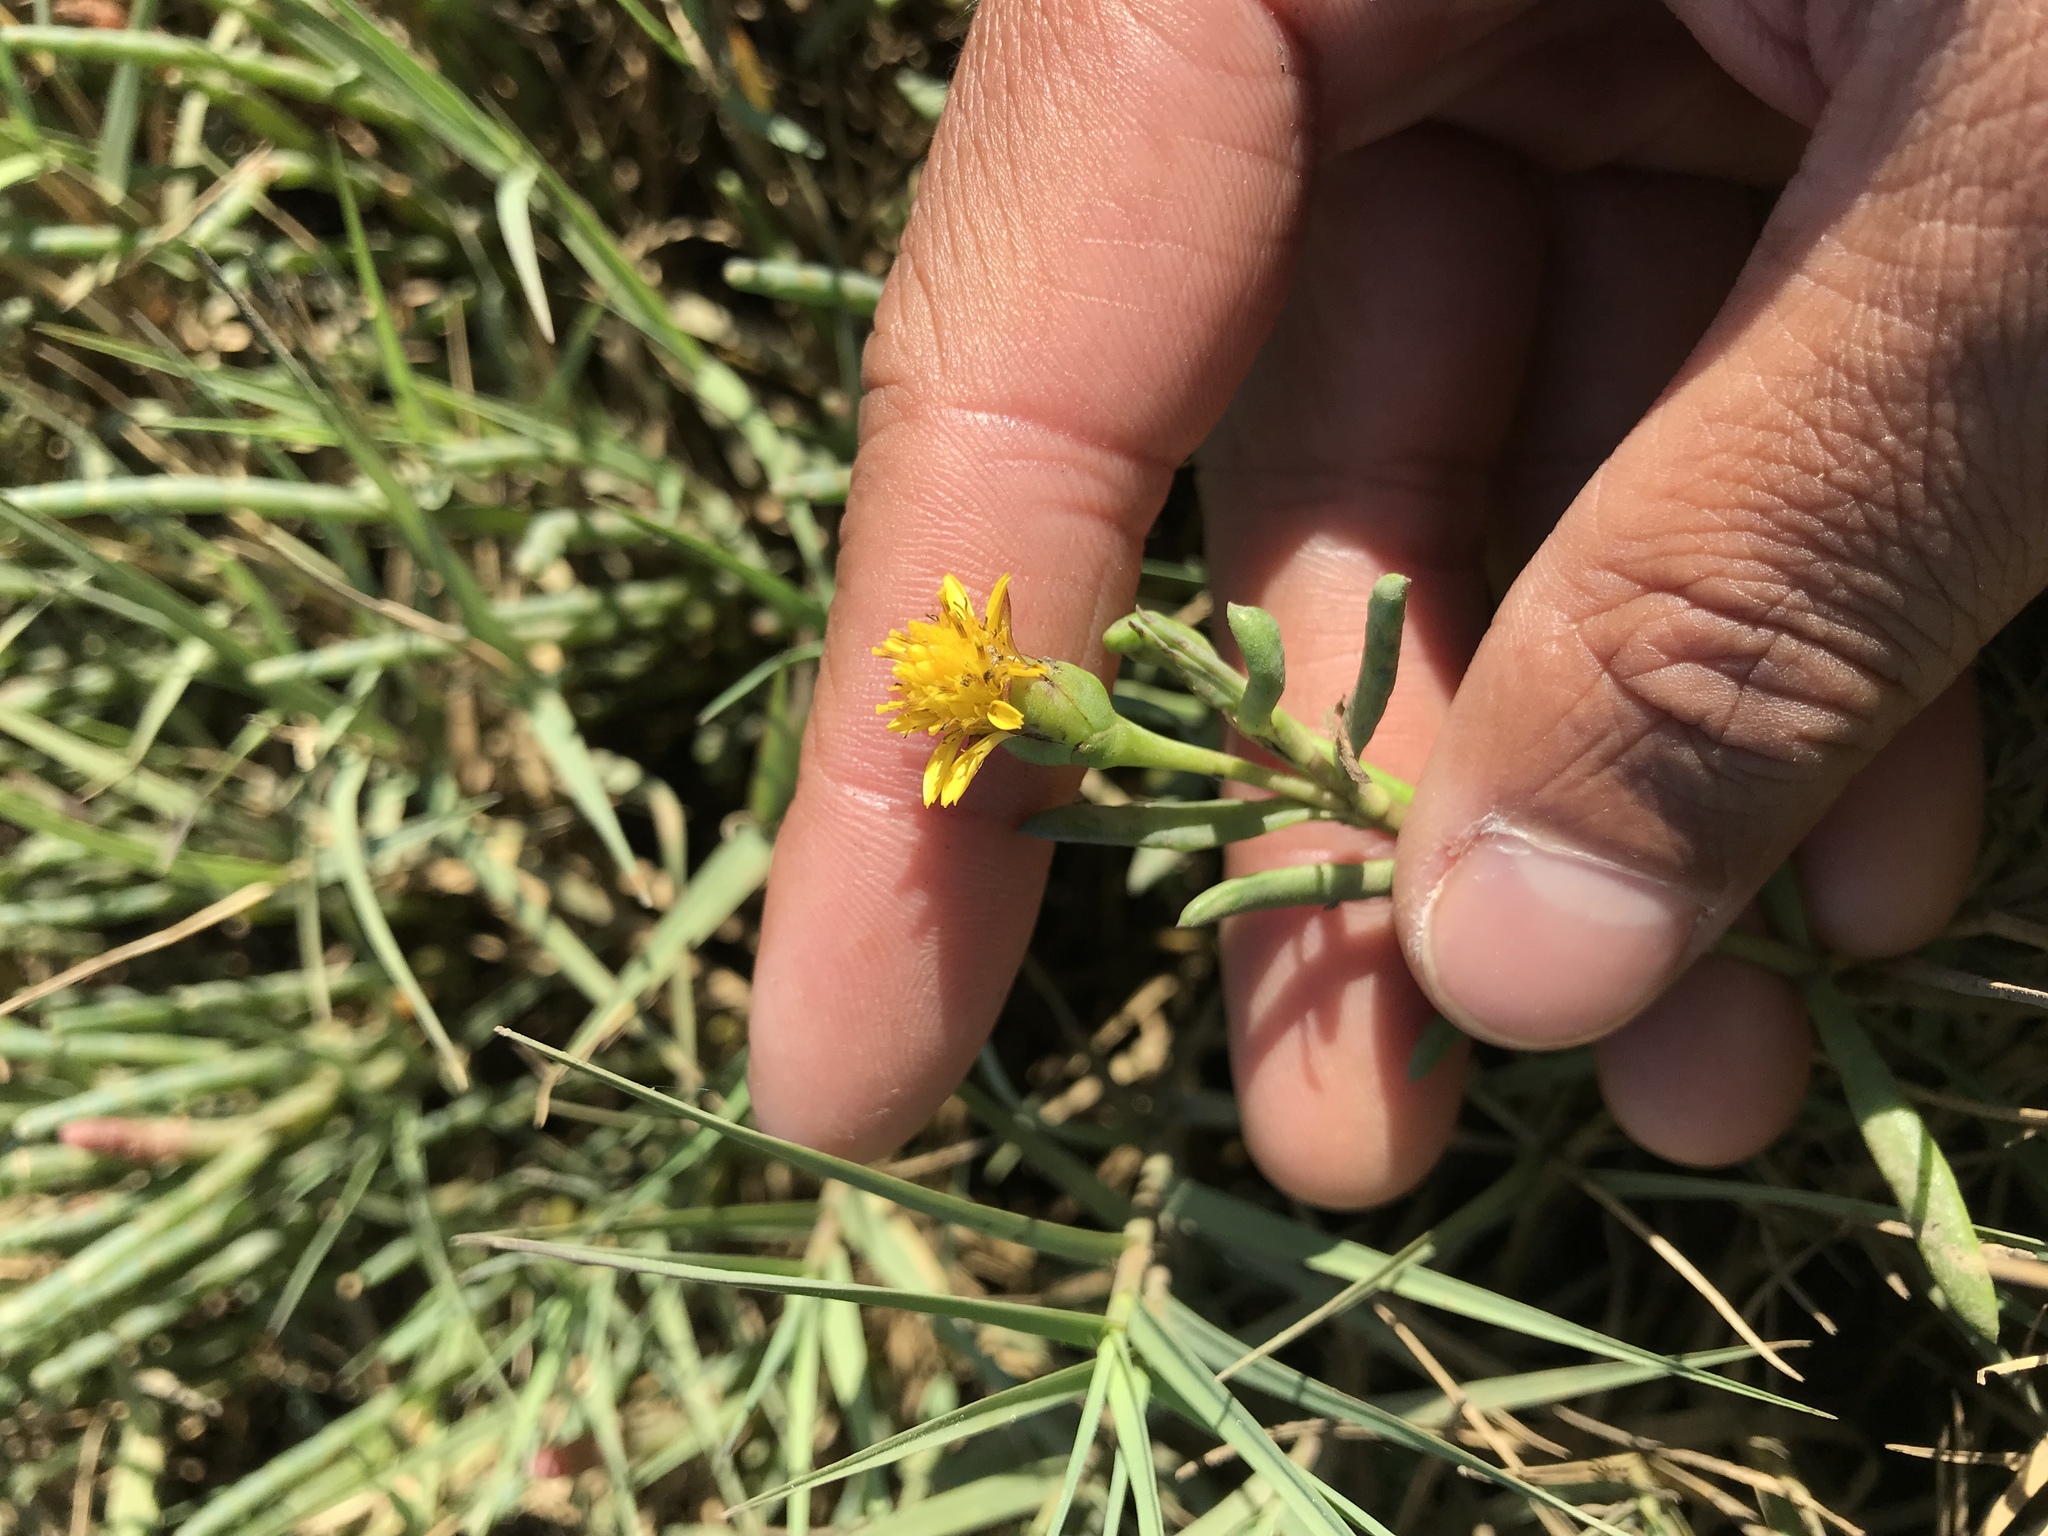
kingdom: Plantae
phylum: Tracheophyta
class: Magnoliopsida
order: Asterales
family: Asteraceae
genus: Jaumea
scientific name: Jaumea carnosa
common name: Fleshy jaumea
